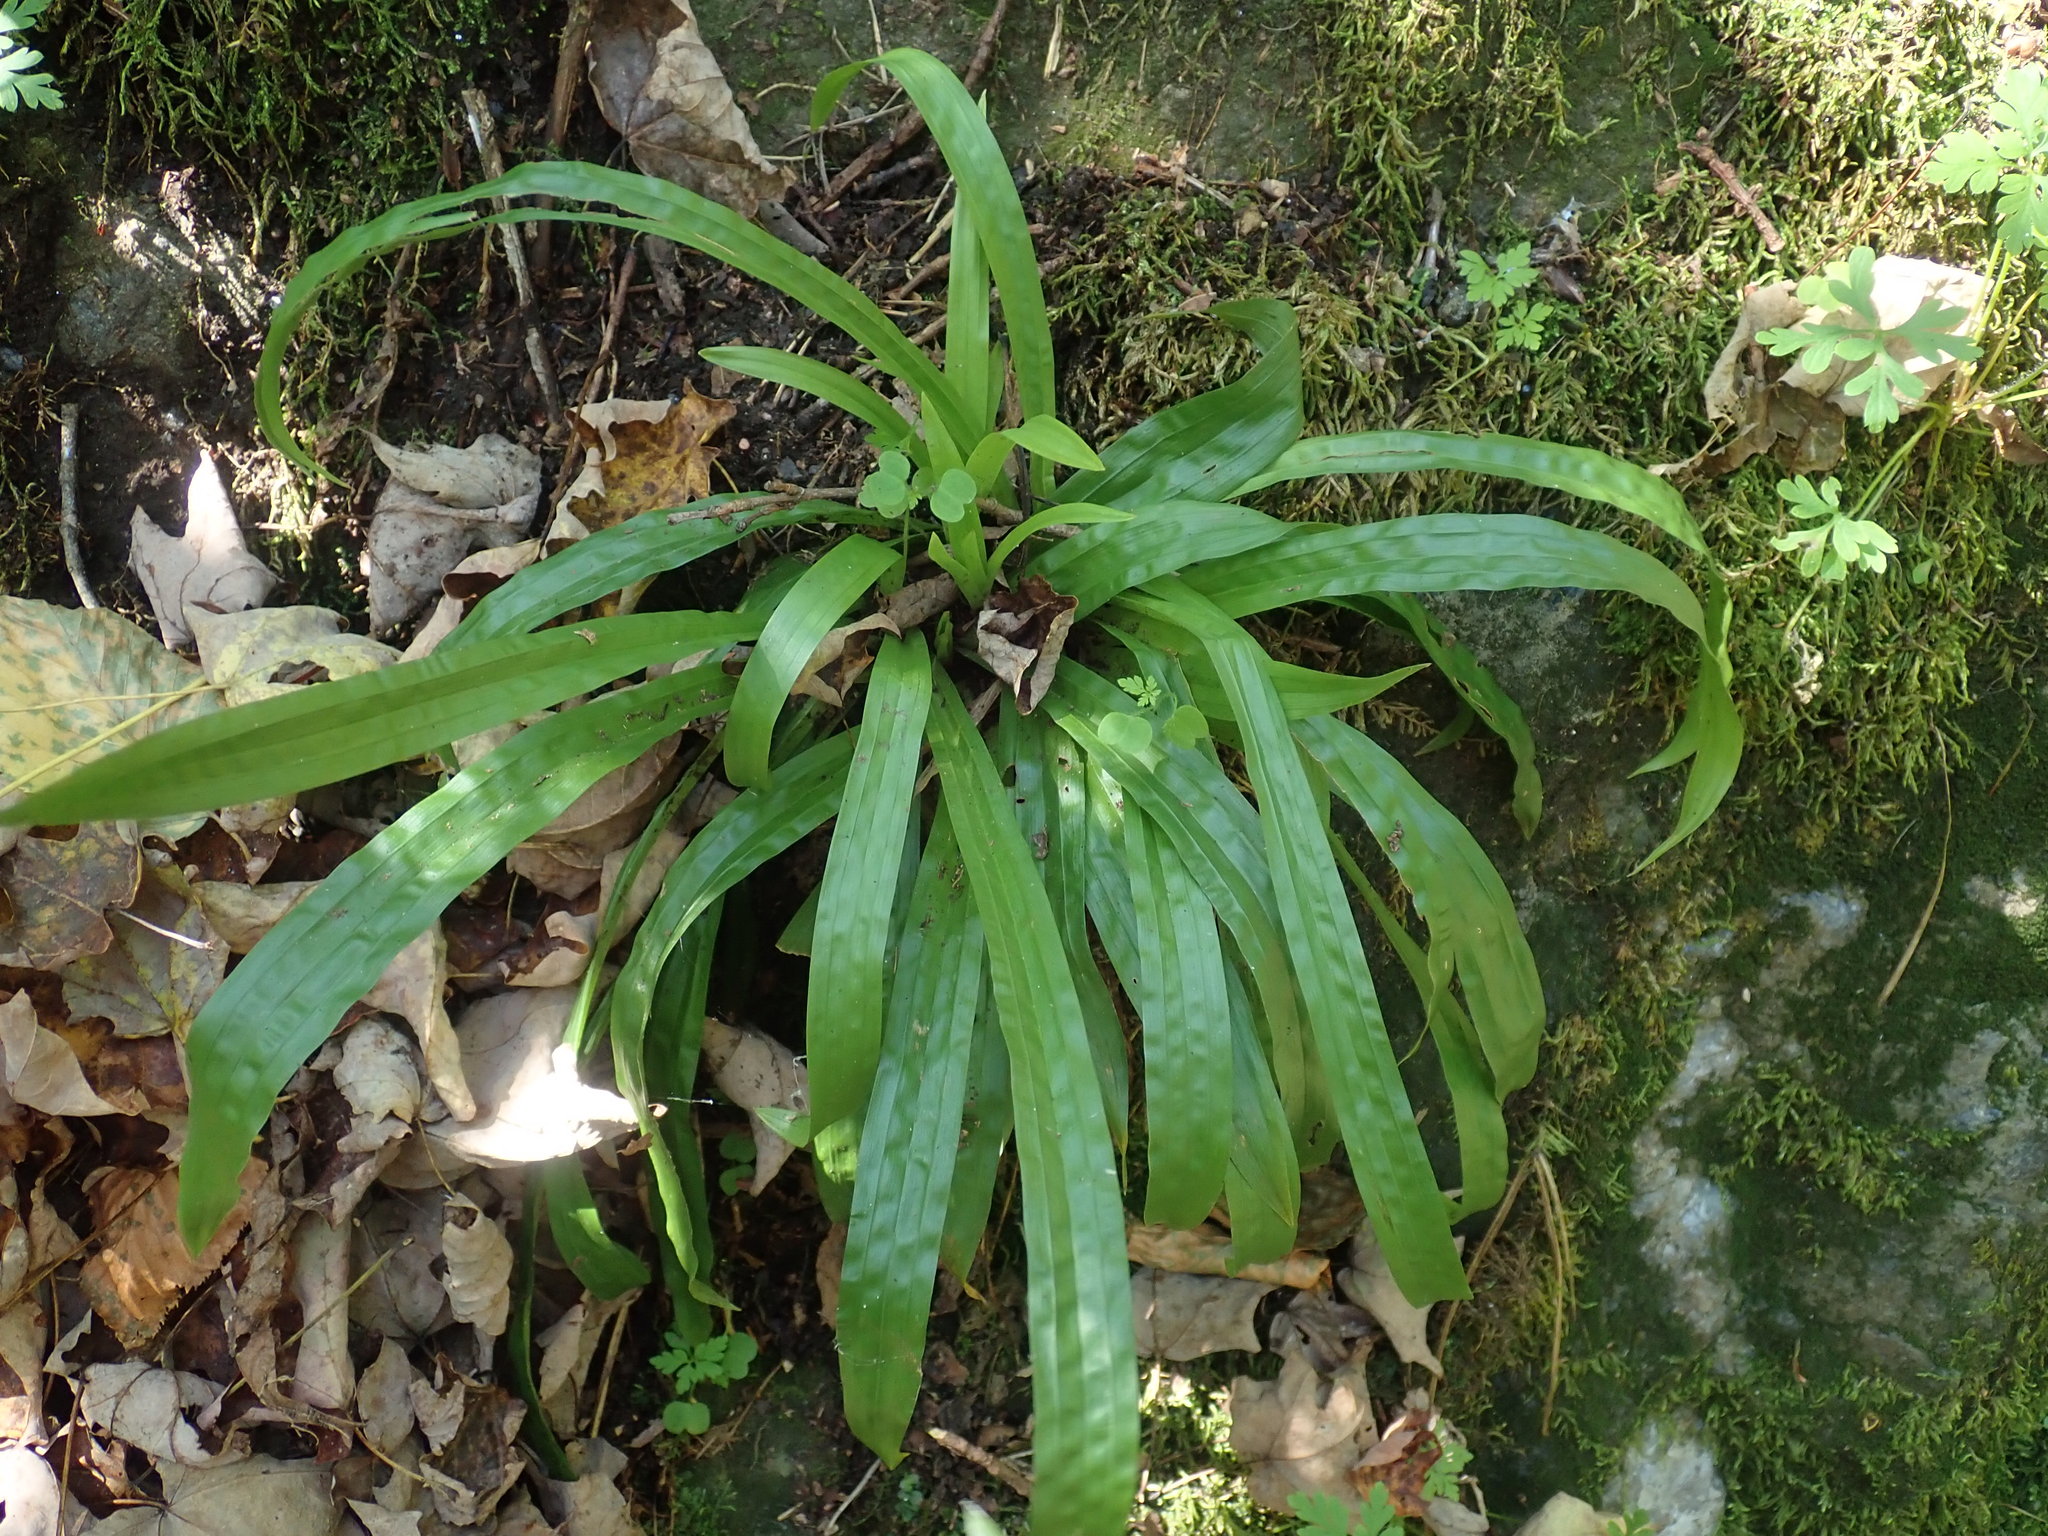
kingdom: Plantae
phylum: Tracheophyta
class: Liliopsida
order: Poales
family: Cyperaceae
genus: Carex
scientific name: Carex plantaginea
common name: Plantain-leaved sedge
